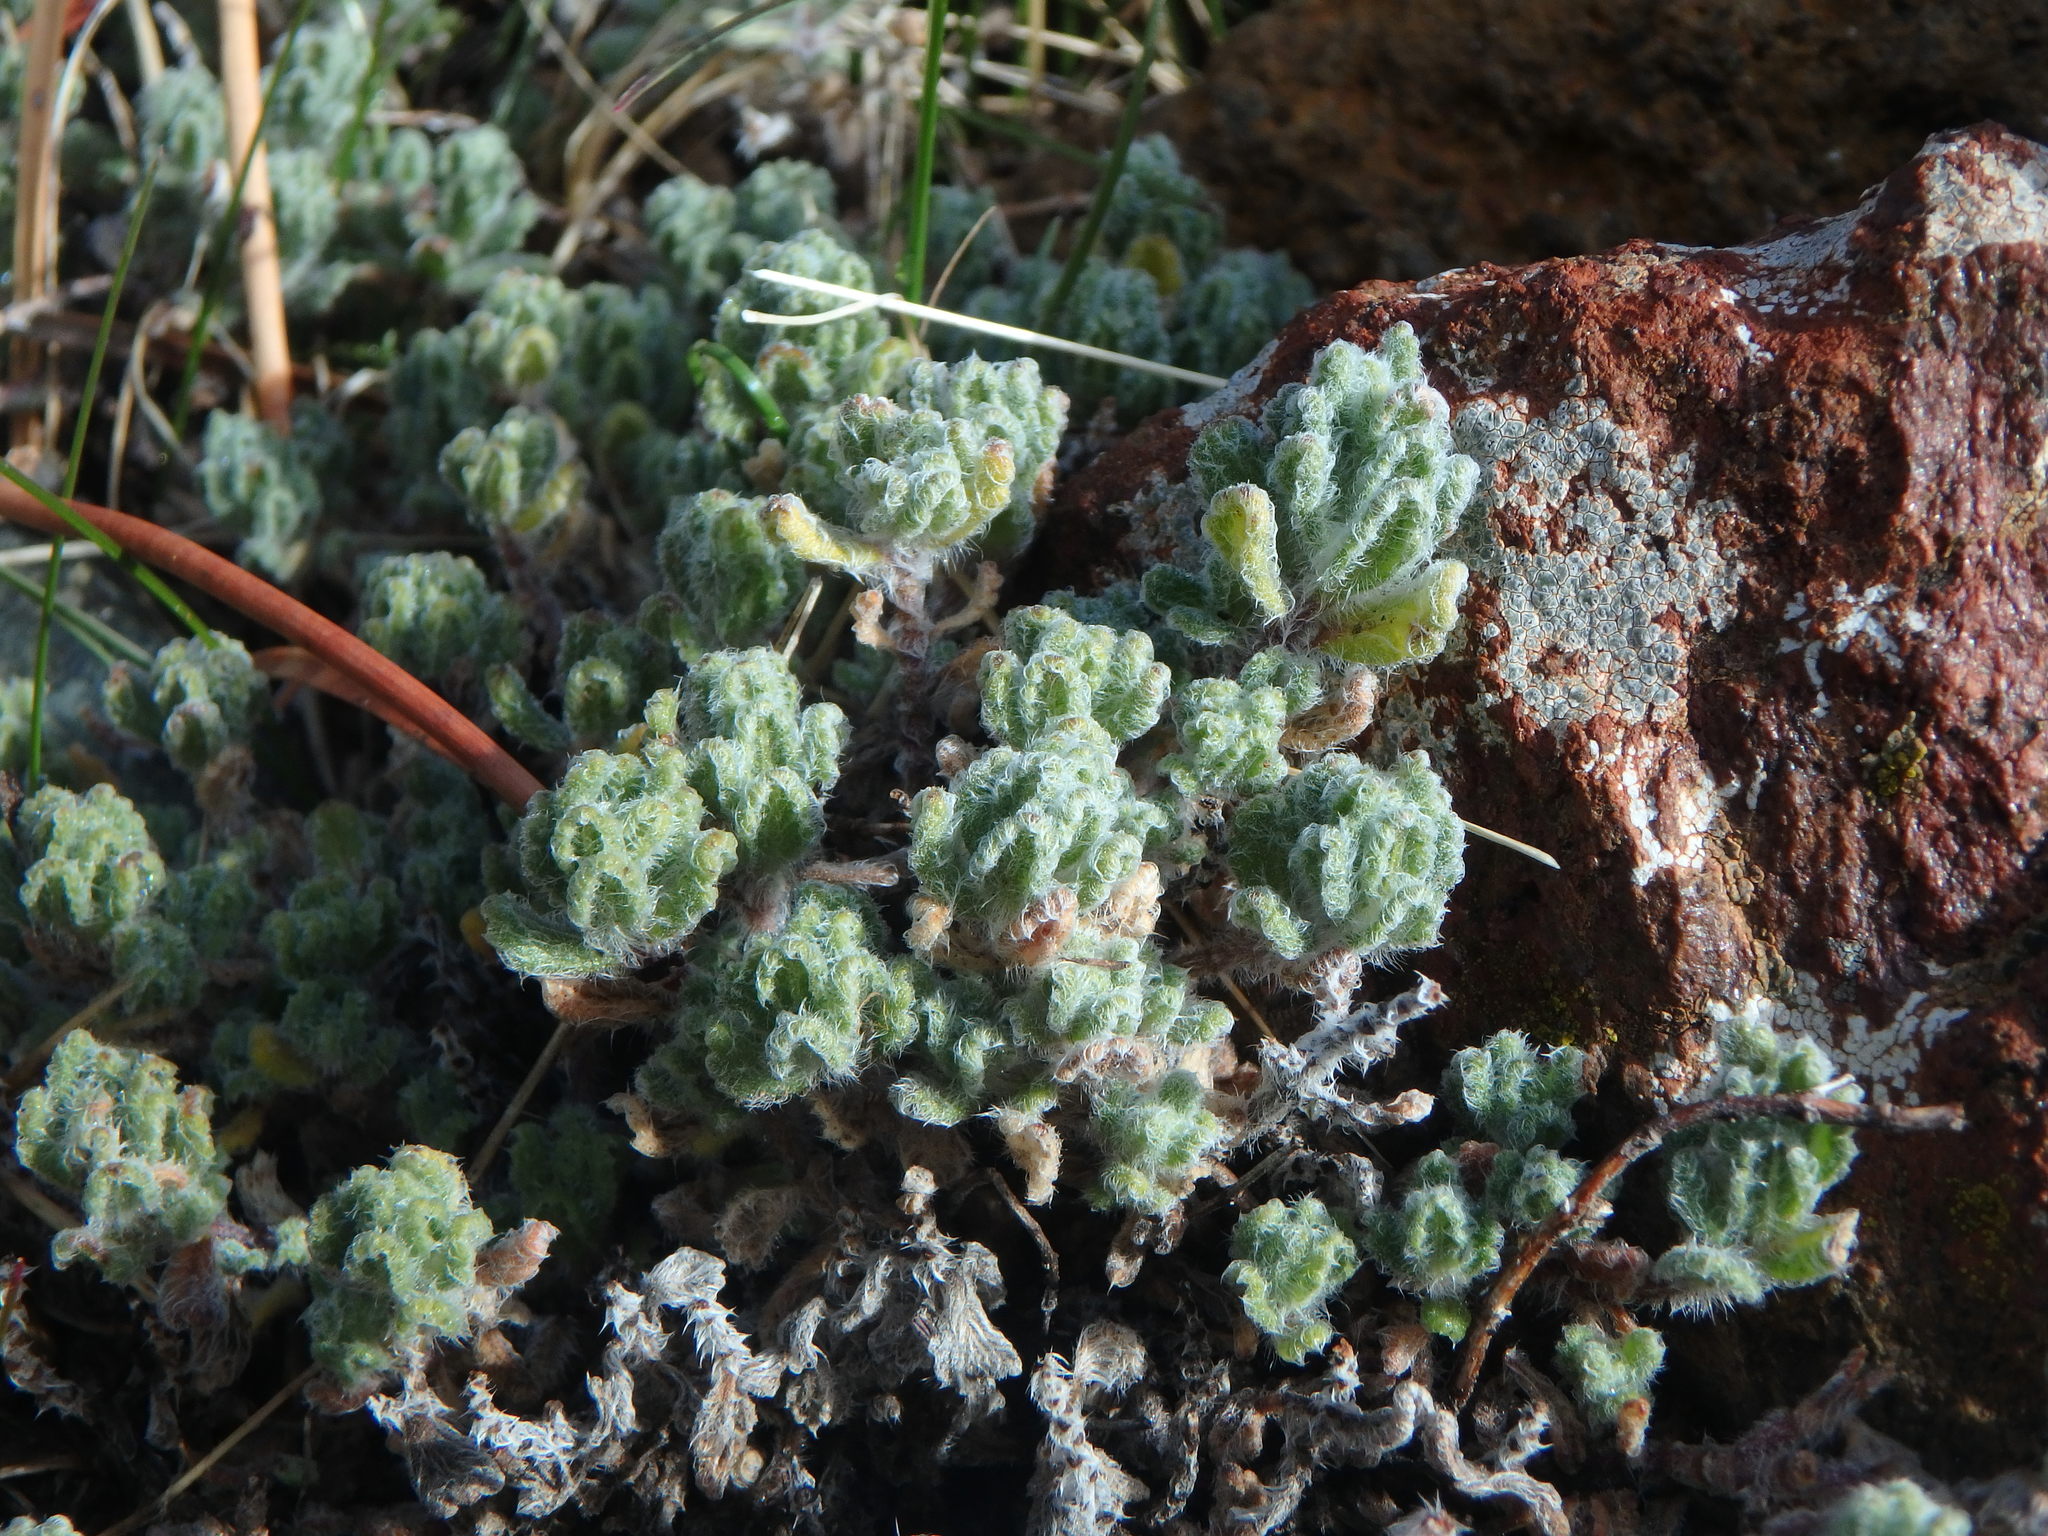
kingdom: Plantae
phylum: Tracheophyta
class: Magnoliopsida
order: Lamiales
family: Lamiaceae
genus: Teucrium
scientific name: Teucrium cyprium
